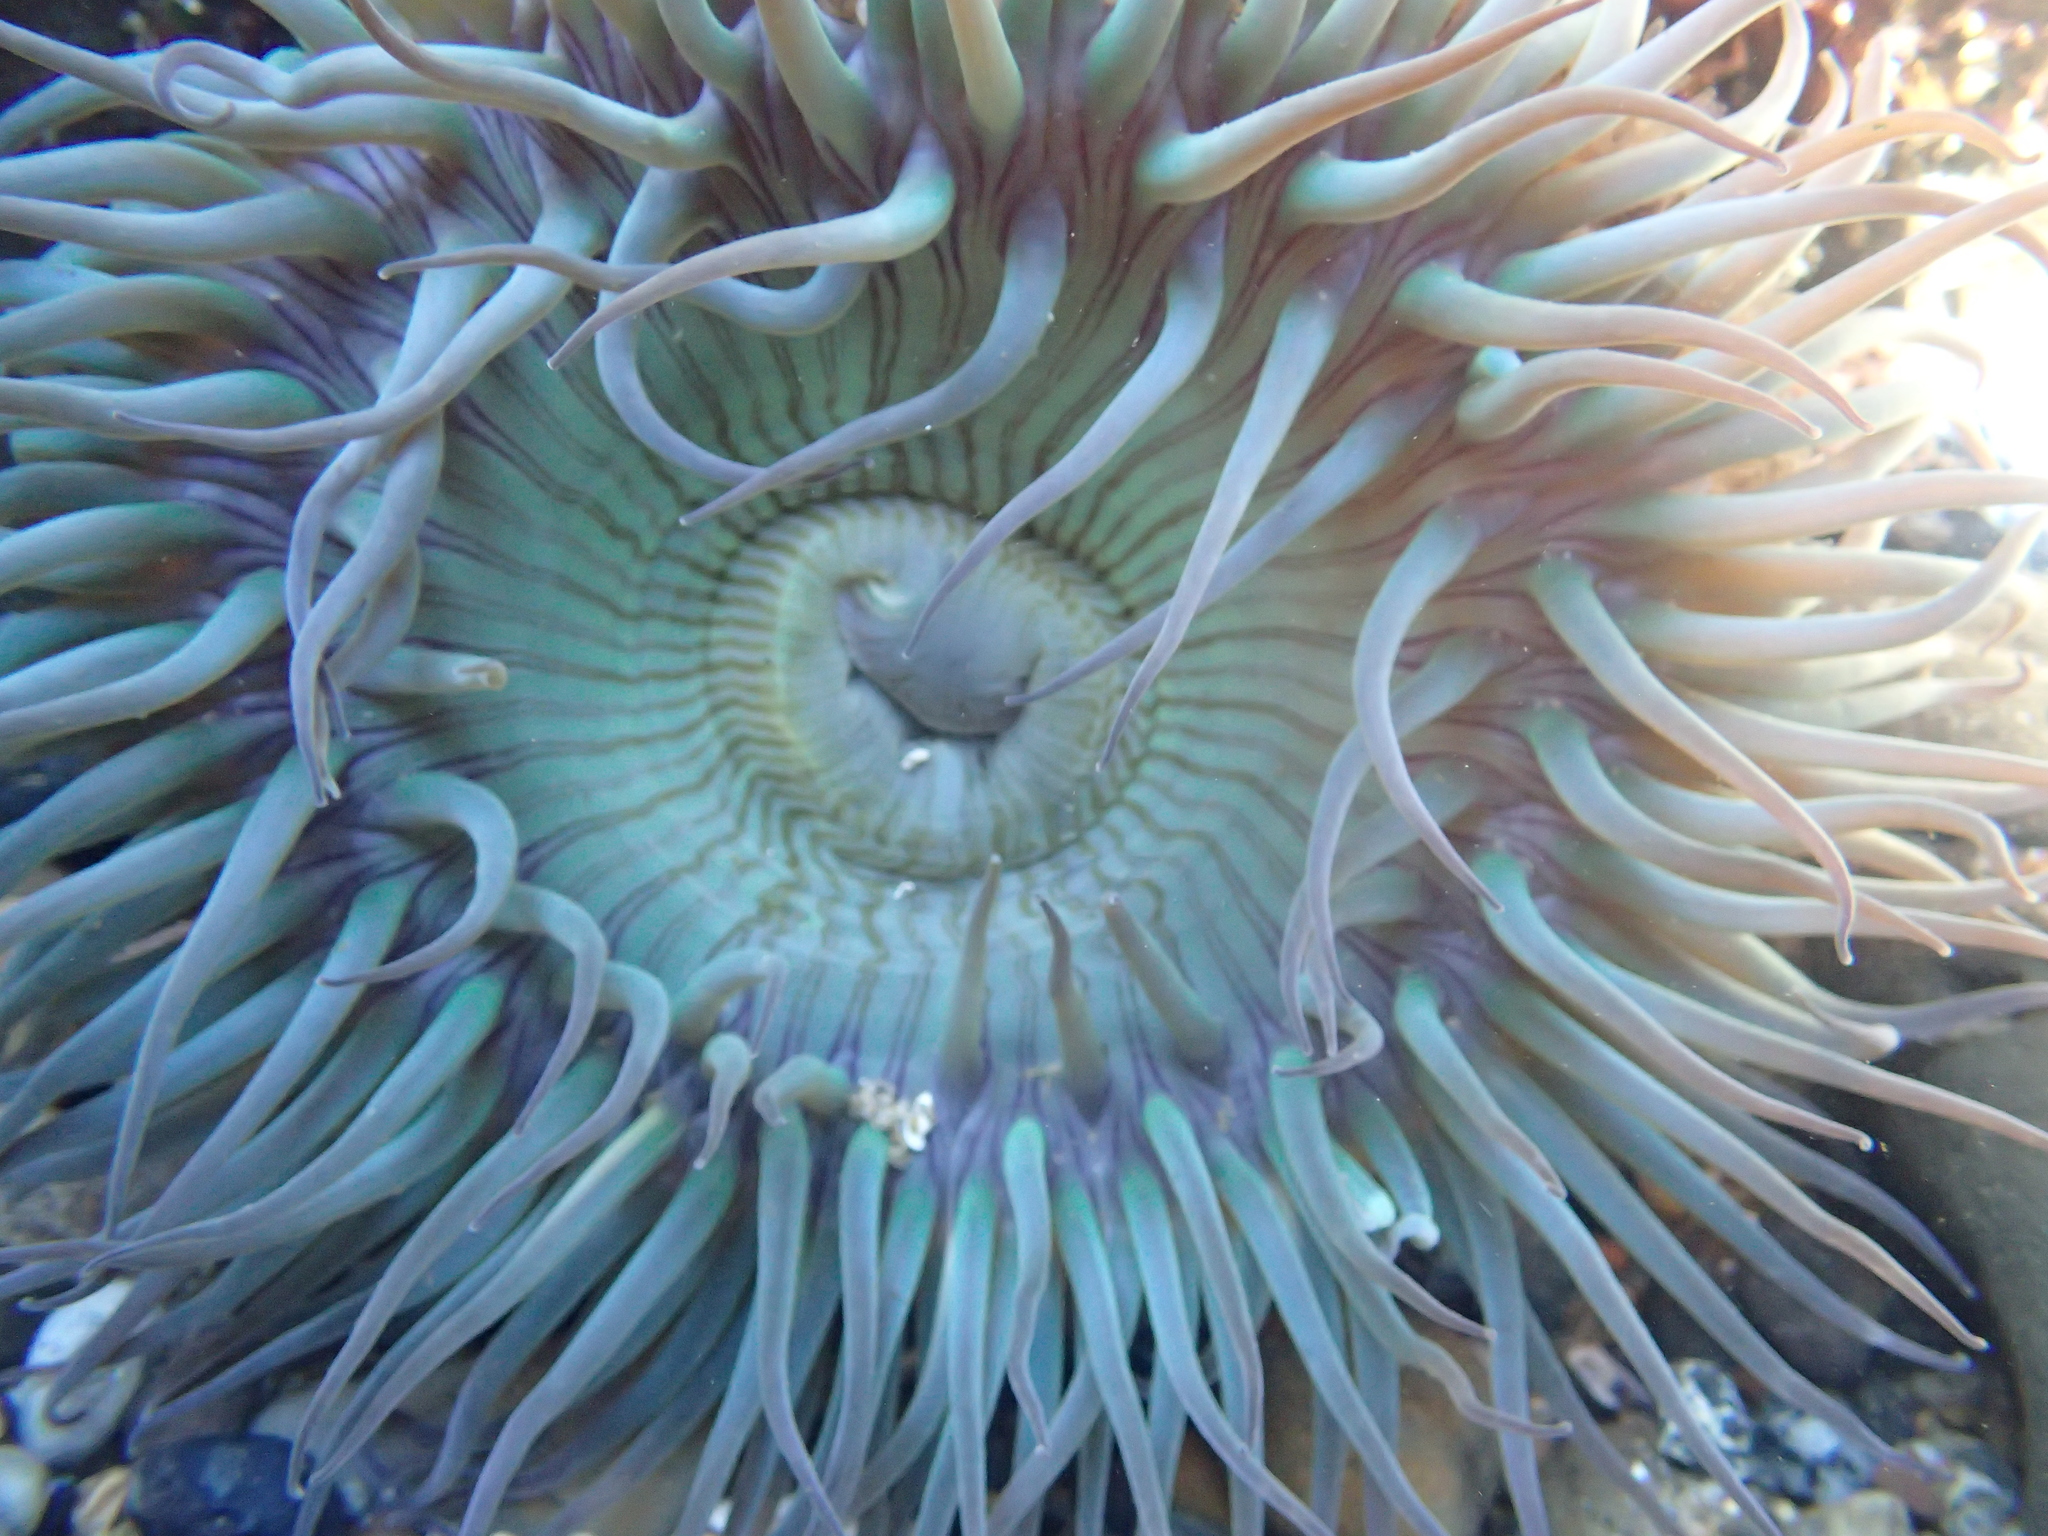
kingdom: Animalia
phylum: Cnidaria
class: Anthozoa
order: Actiniaria
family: Actiniidae
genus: Anthopleura
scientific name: Anthopleura sola
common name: Sun anemone
